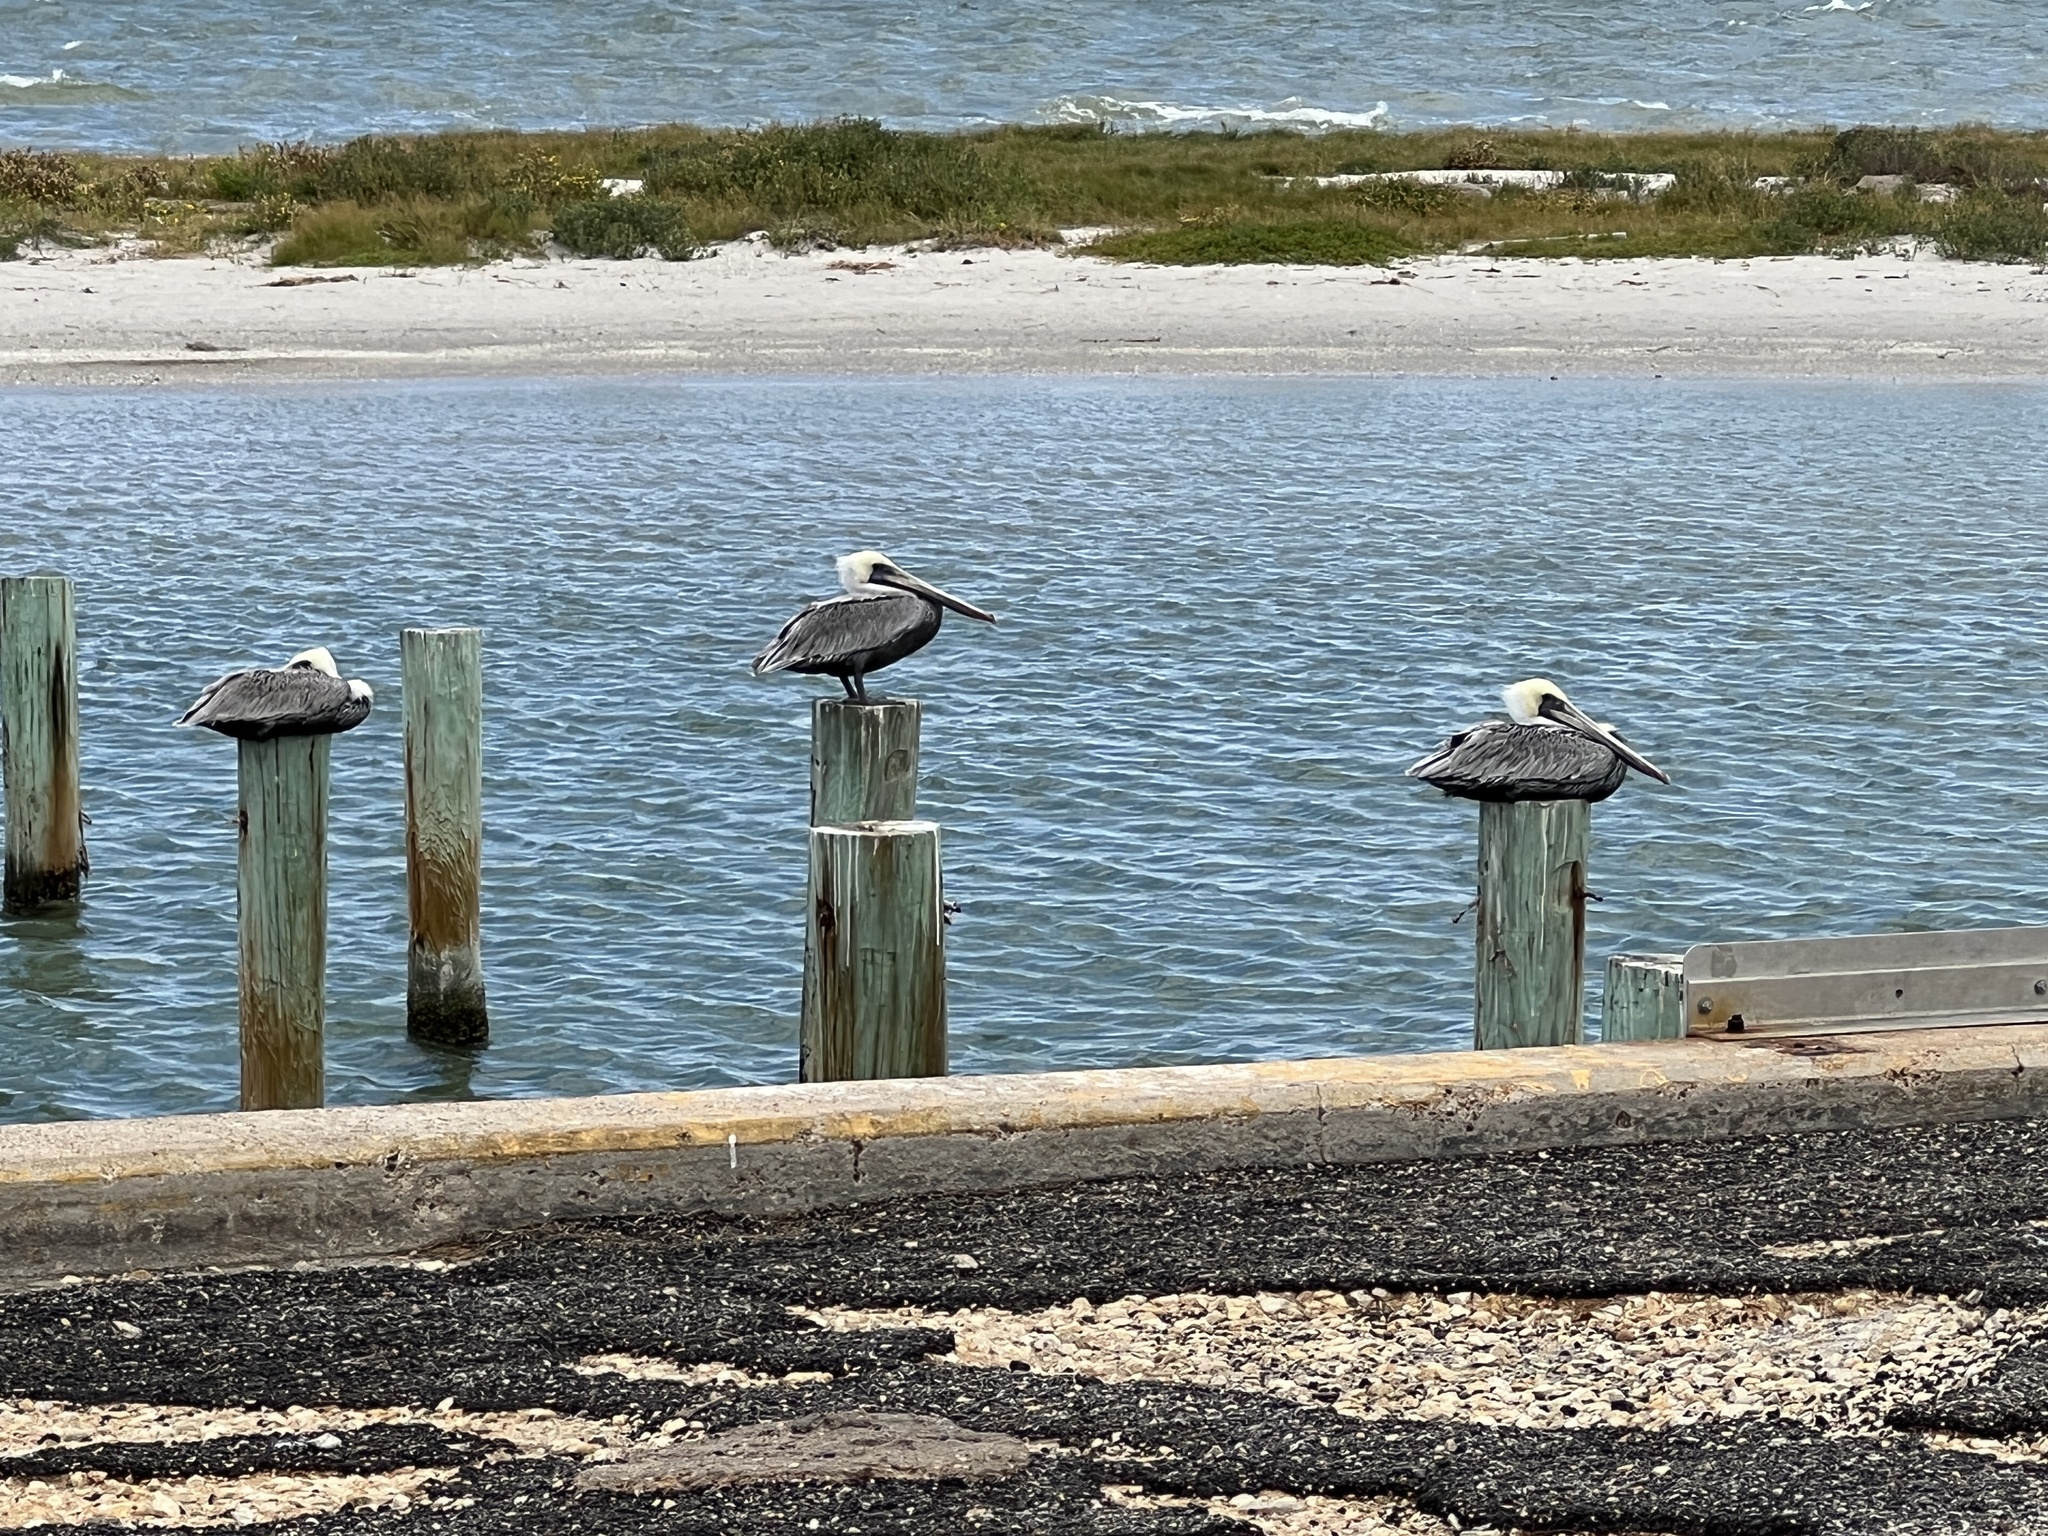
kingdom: Animalia
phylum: Chordata
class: Aves
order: Pelecaniformes
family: Pelecanidae
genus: Pelecanus
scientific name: Pelecanus occidentalis
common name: Brown pelican
